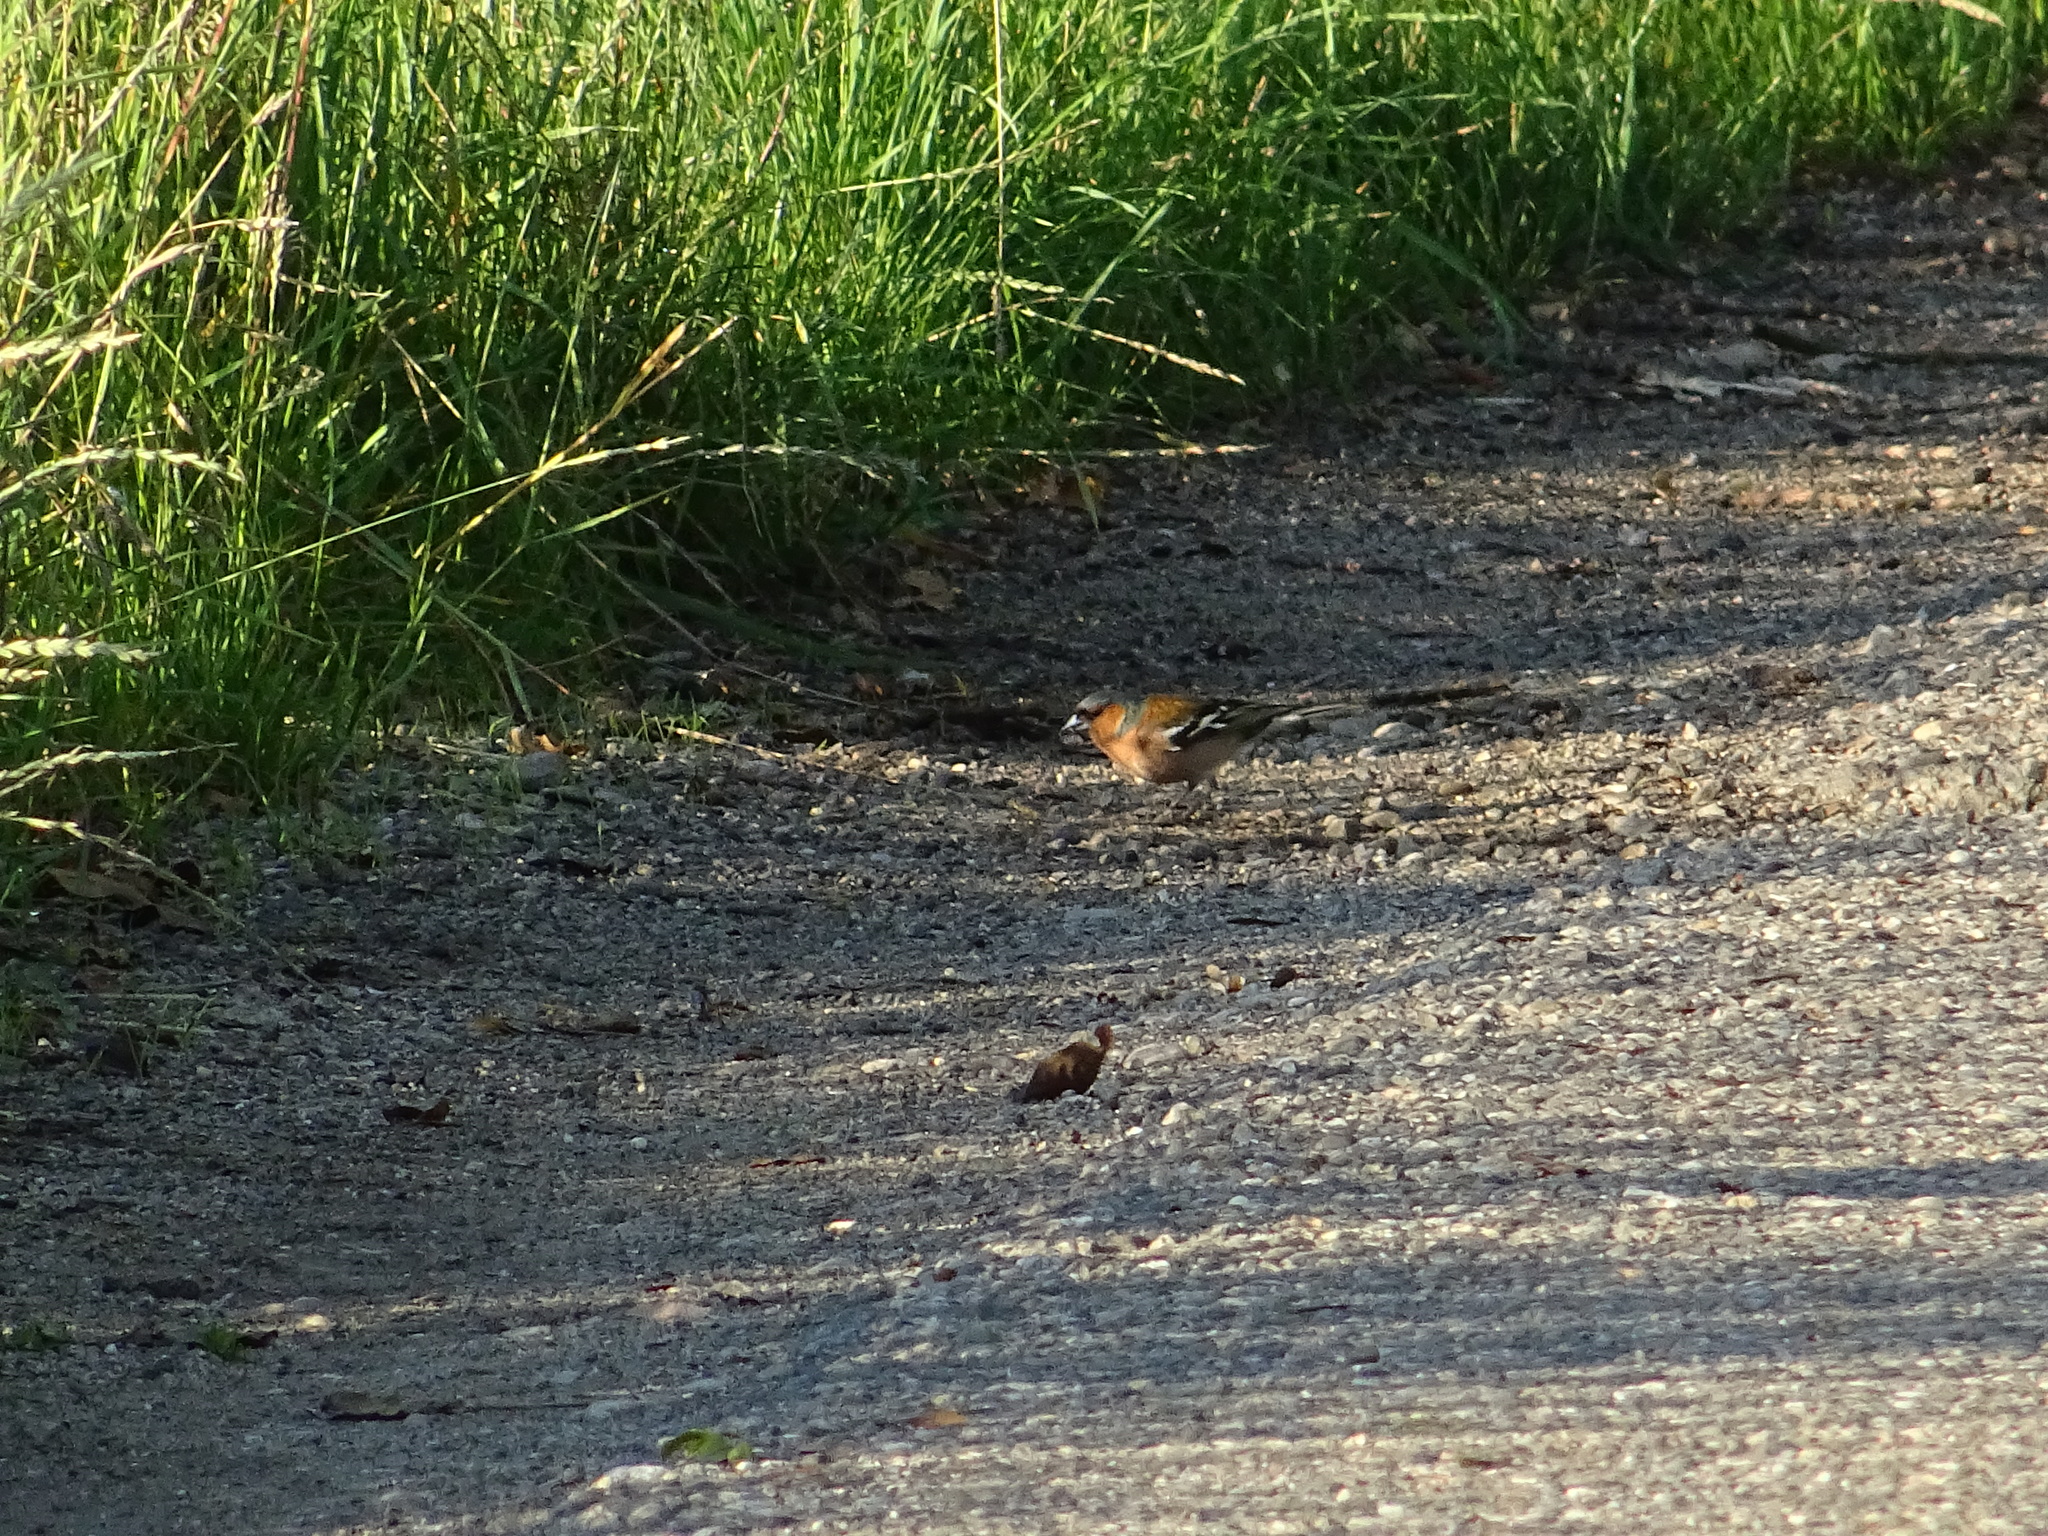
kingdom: Animalia
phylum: Chordata
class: Aves
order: Passeriformes
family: Fringillidae
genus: Fringilla
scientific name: Fringilla coelebs
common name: Common chaffinch
